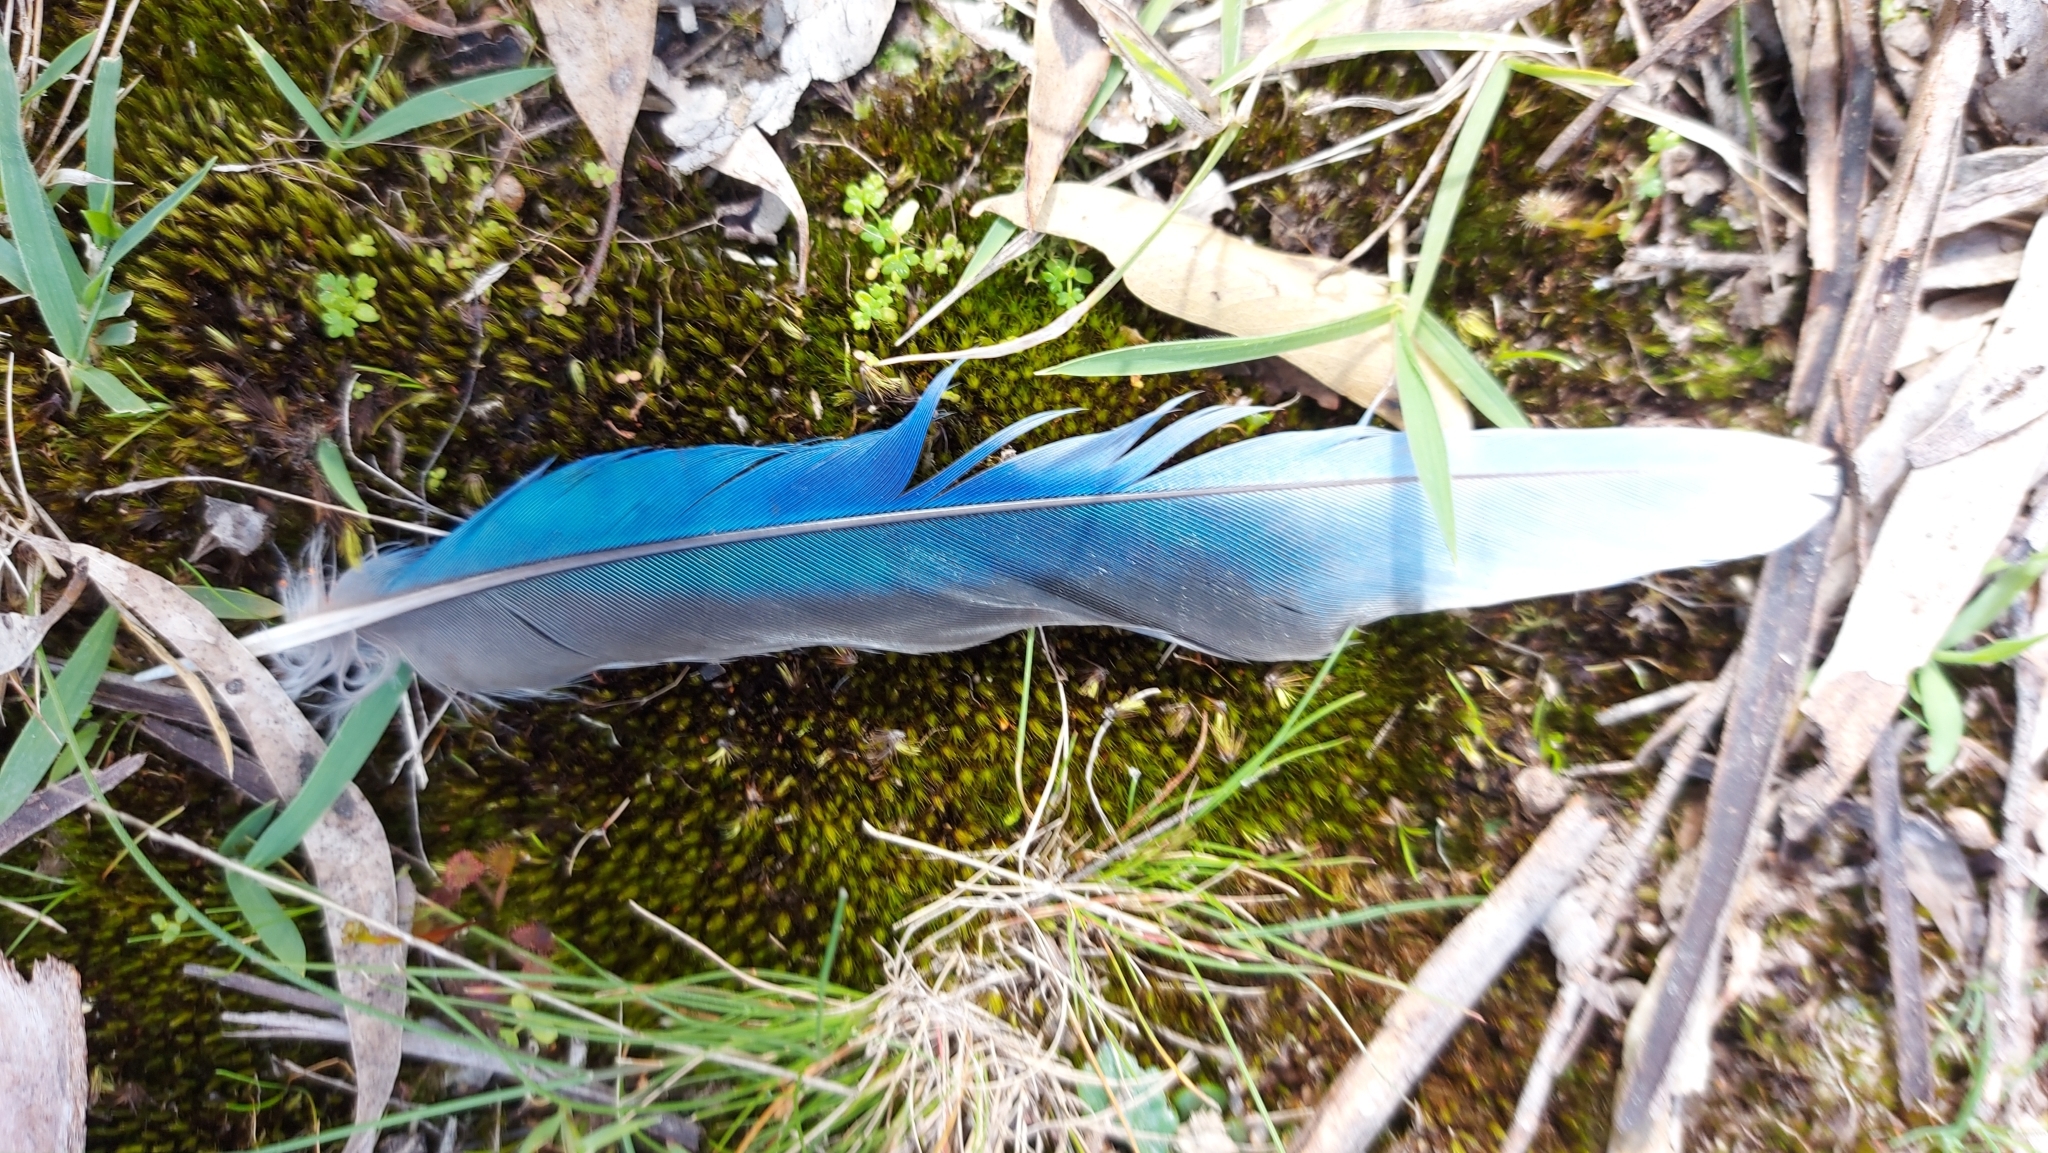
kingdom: Animalia
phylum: Chordata
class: Aves
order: Psittaciformes
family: Psittacidae
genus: Platycercus
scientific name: Platycercus eximius
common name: Eastern rosella
